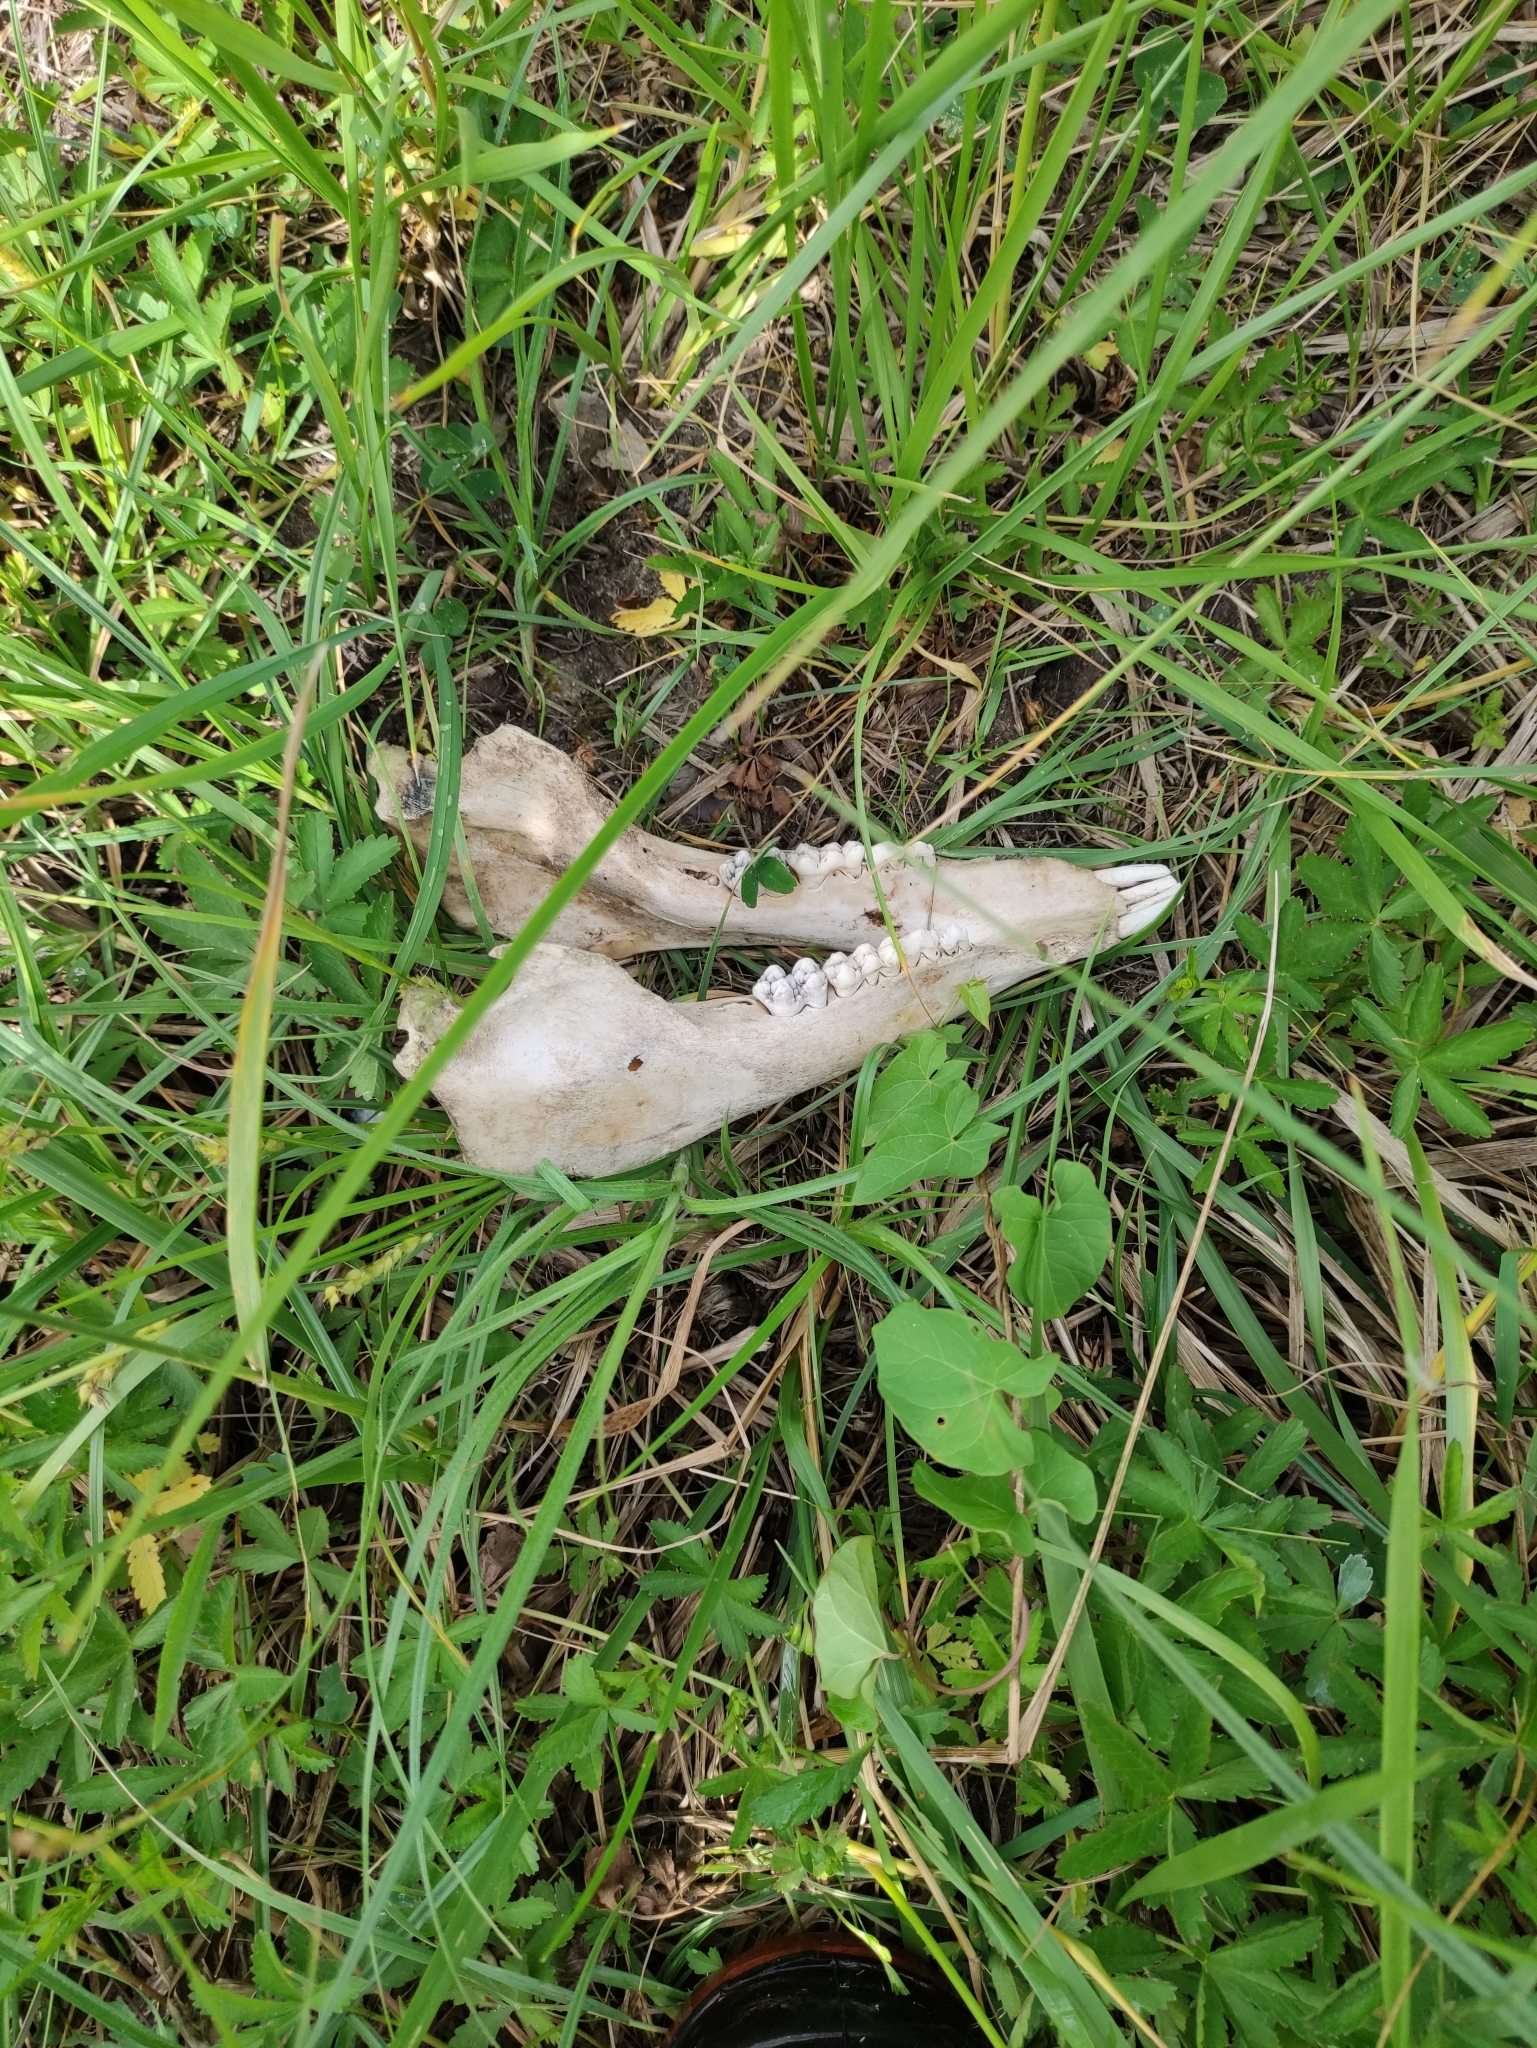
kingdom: Animalia
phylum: Chordata
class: Mammalia
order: Artiodactyla
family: Suidae
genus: Sus
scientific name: Sus scrofa
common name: Wild boar
